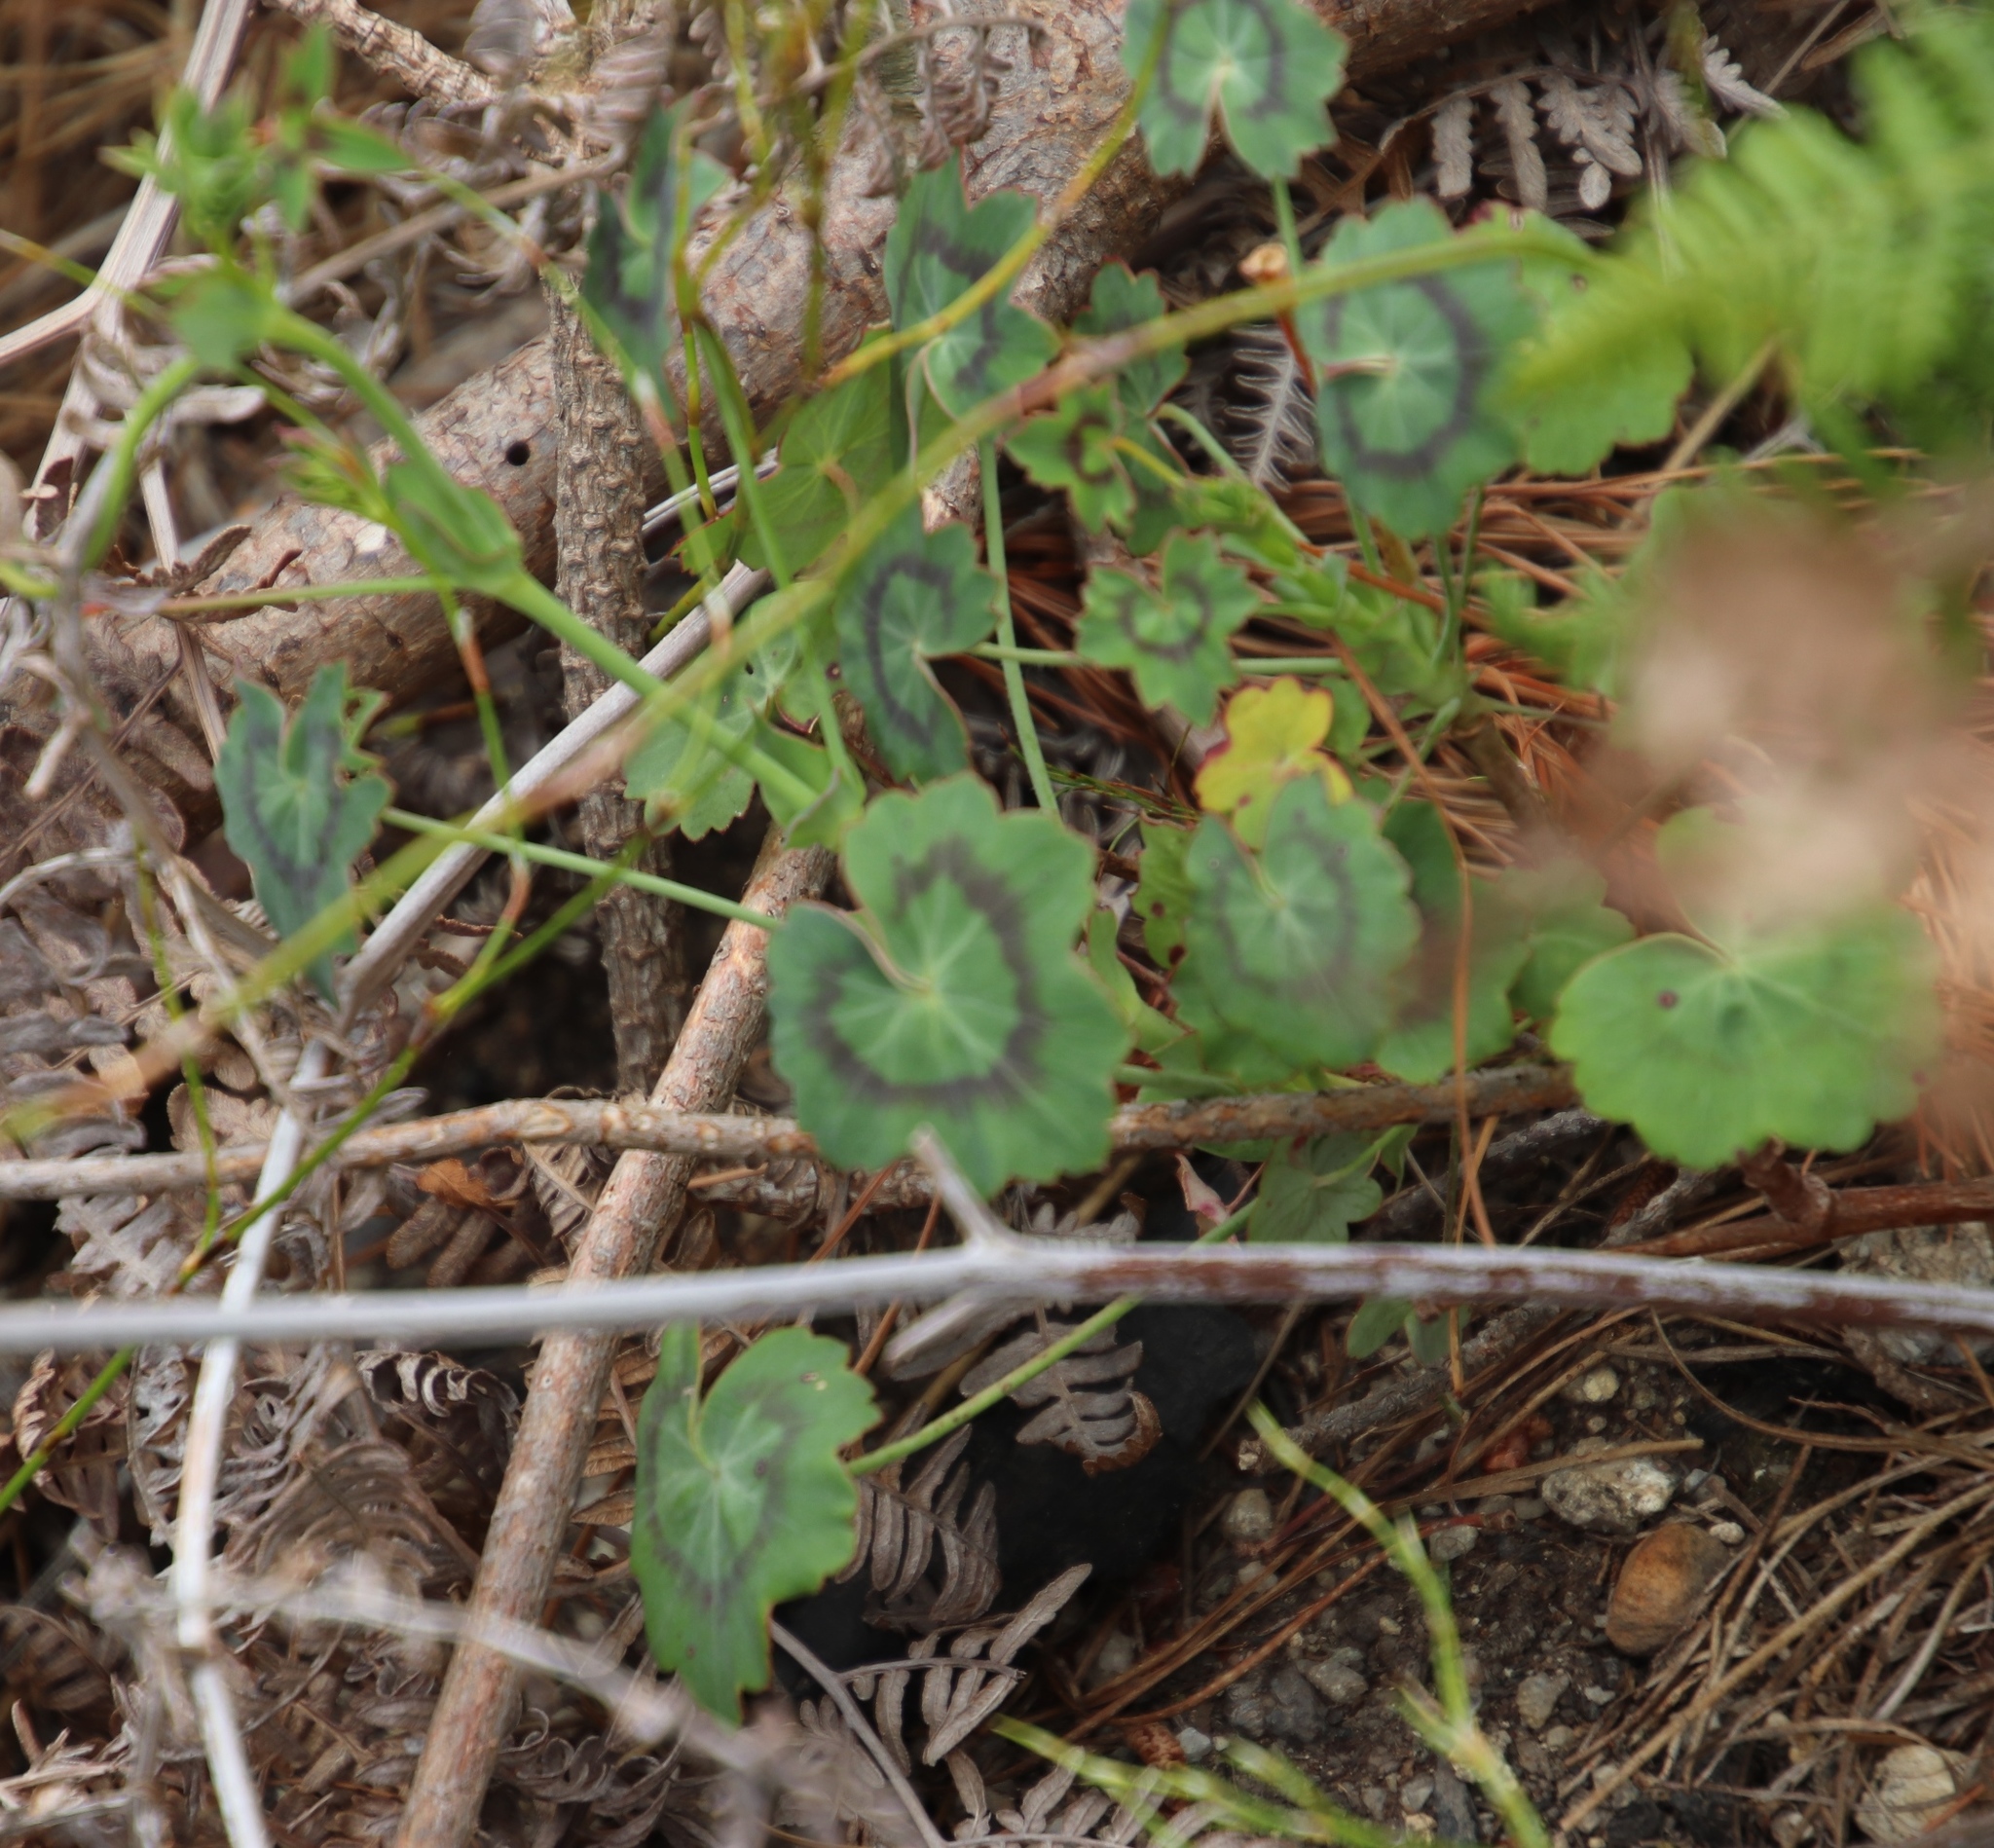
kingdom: Plantae
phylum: Tracheophyta
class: Magnoliopsida
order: Geraniales
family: Geraniaceae
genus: Pelargonium
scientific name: Pelargonium tabulare
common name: Table mountain pelargonium
